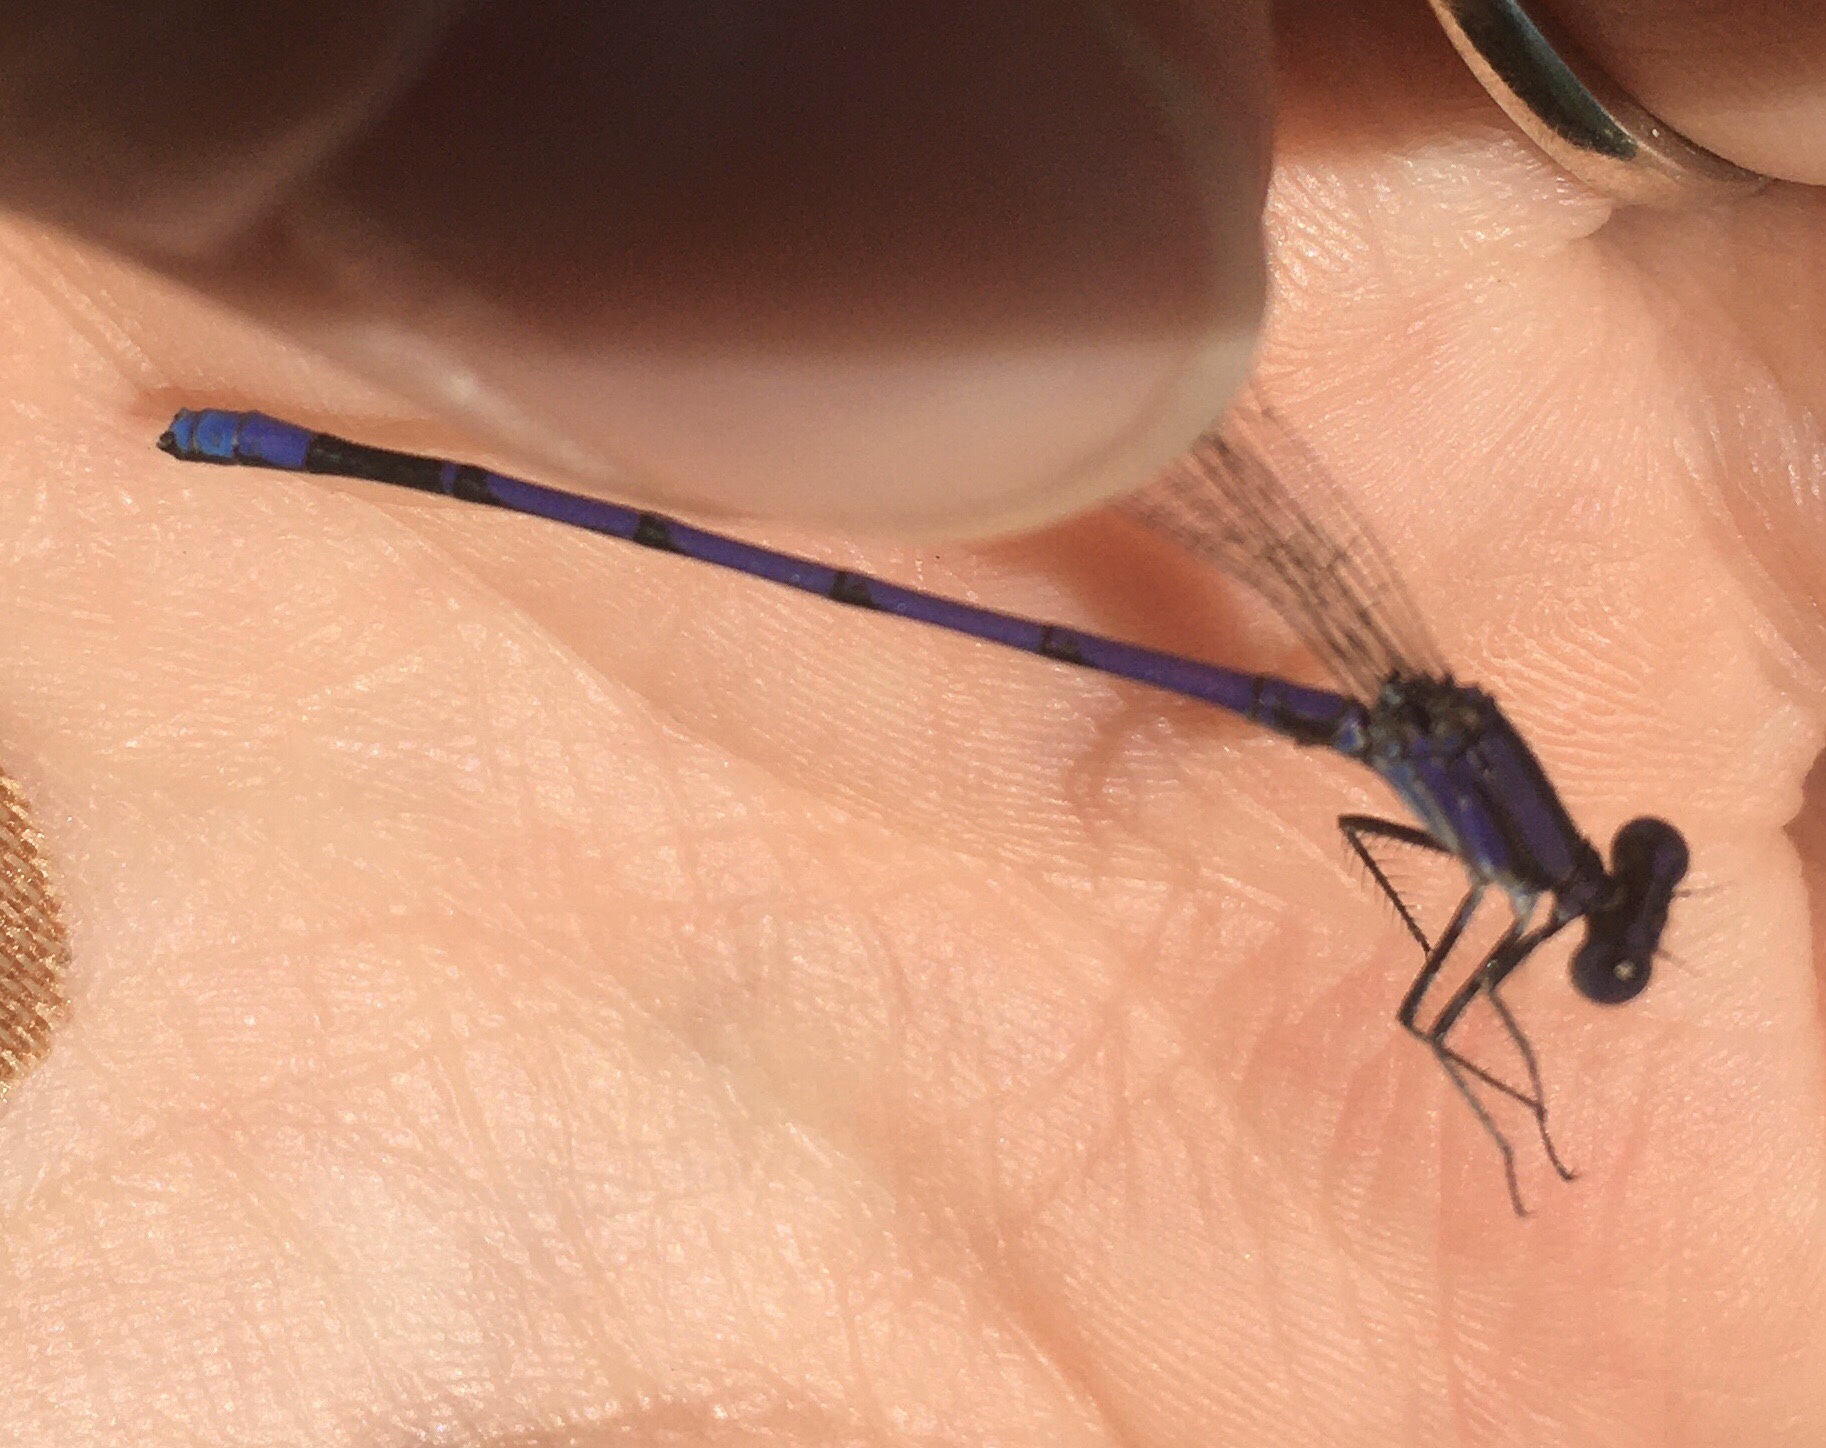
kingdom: Animalia
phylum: Arthropoda
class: Insecta
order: Odonata
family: Coenagrionidae
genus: Argia
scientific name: Argia fumipennis
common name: Variable dancer
